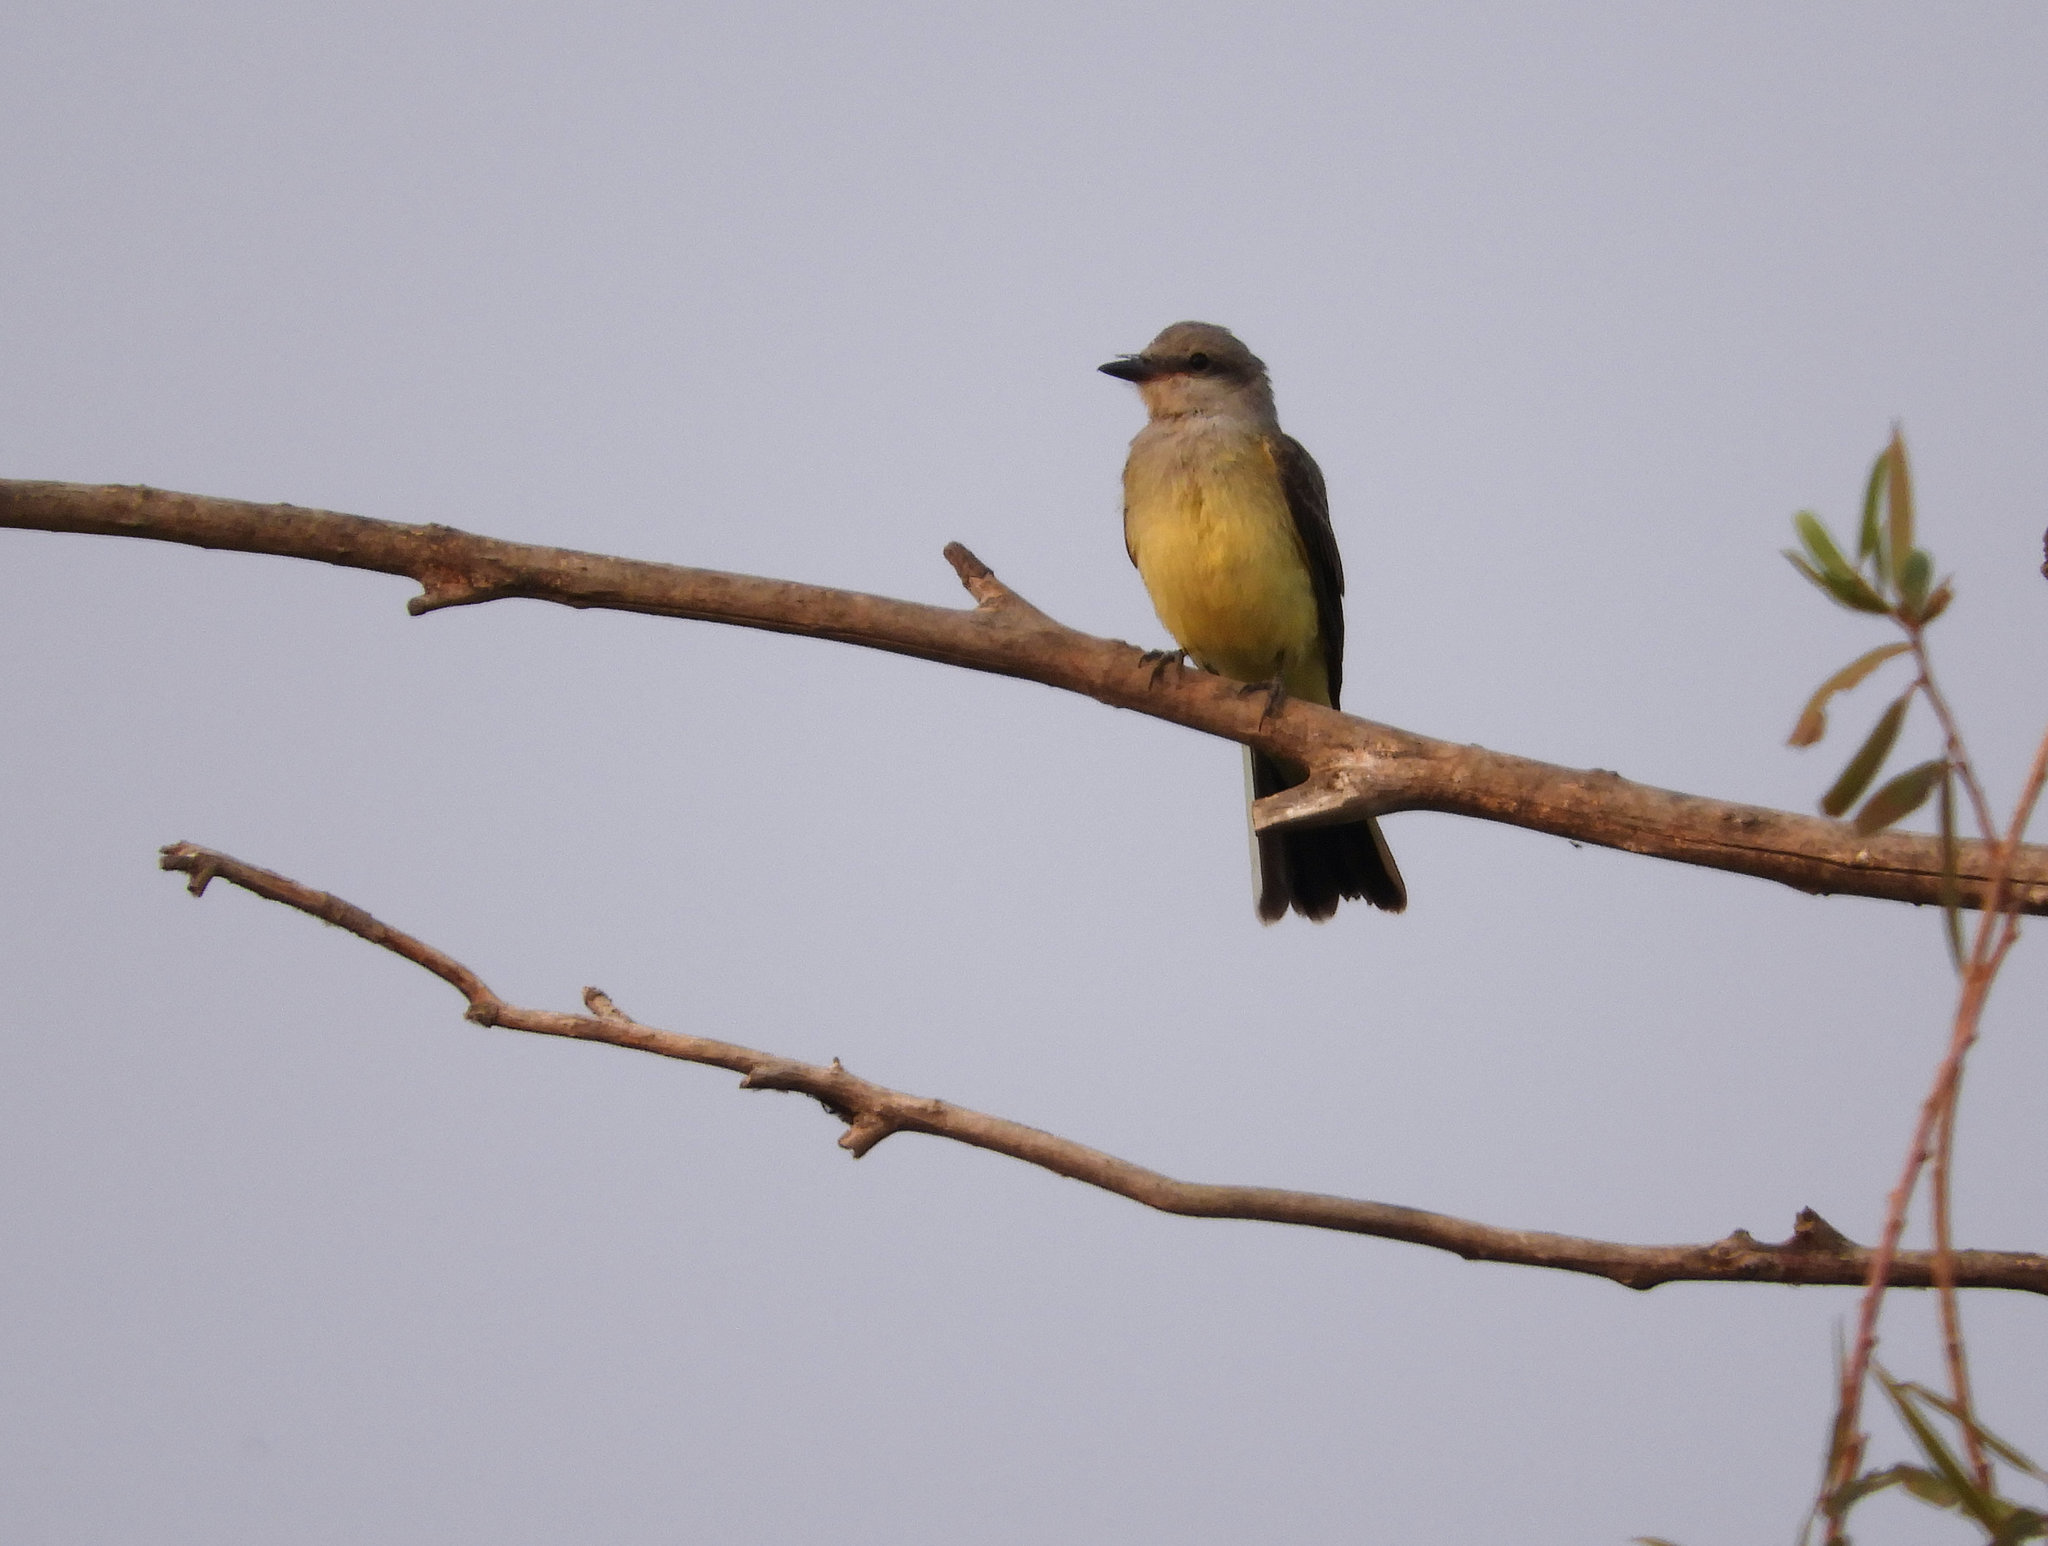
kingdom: Animalia
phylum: Chordata
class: Aves
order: Passeriformes
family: Tyrannidae
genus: Tyrannus
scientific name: Tyrannus verticalis
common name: Western kingbird
